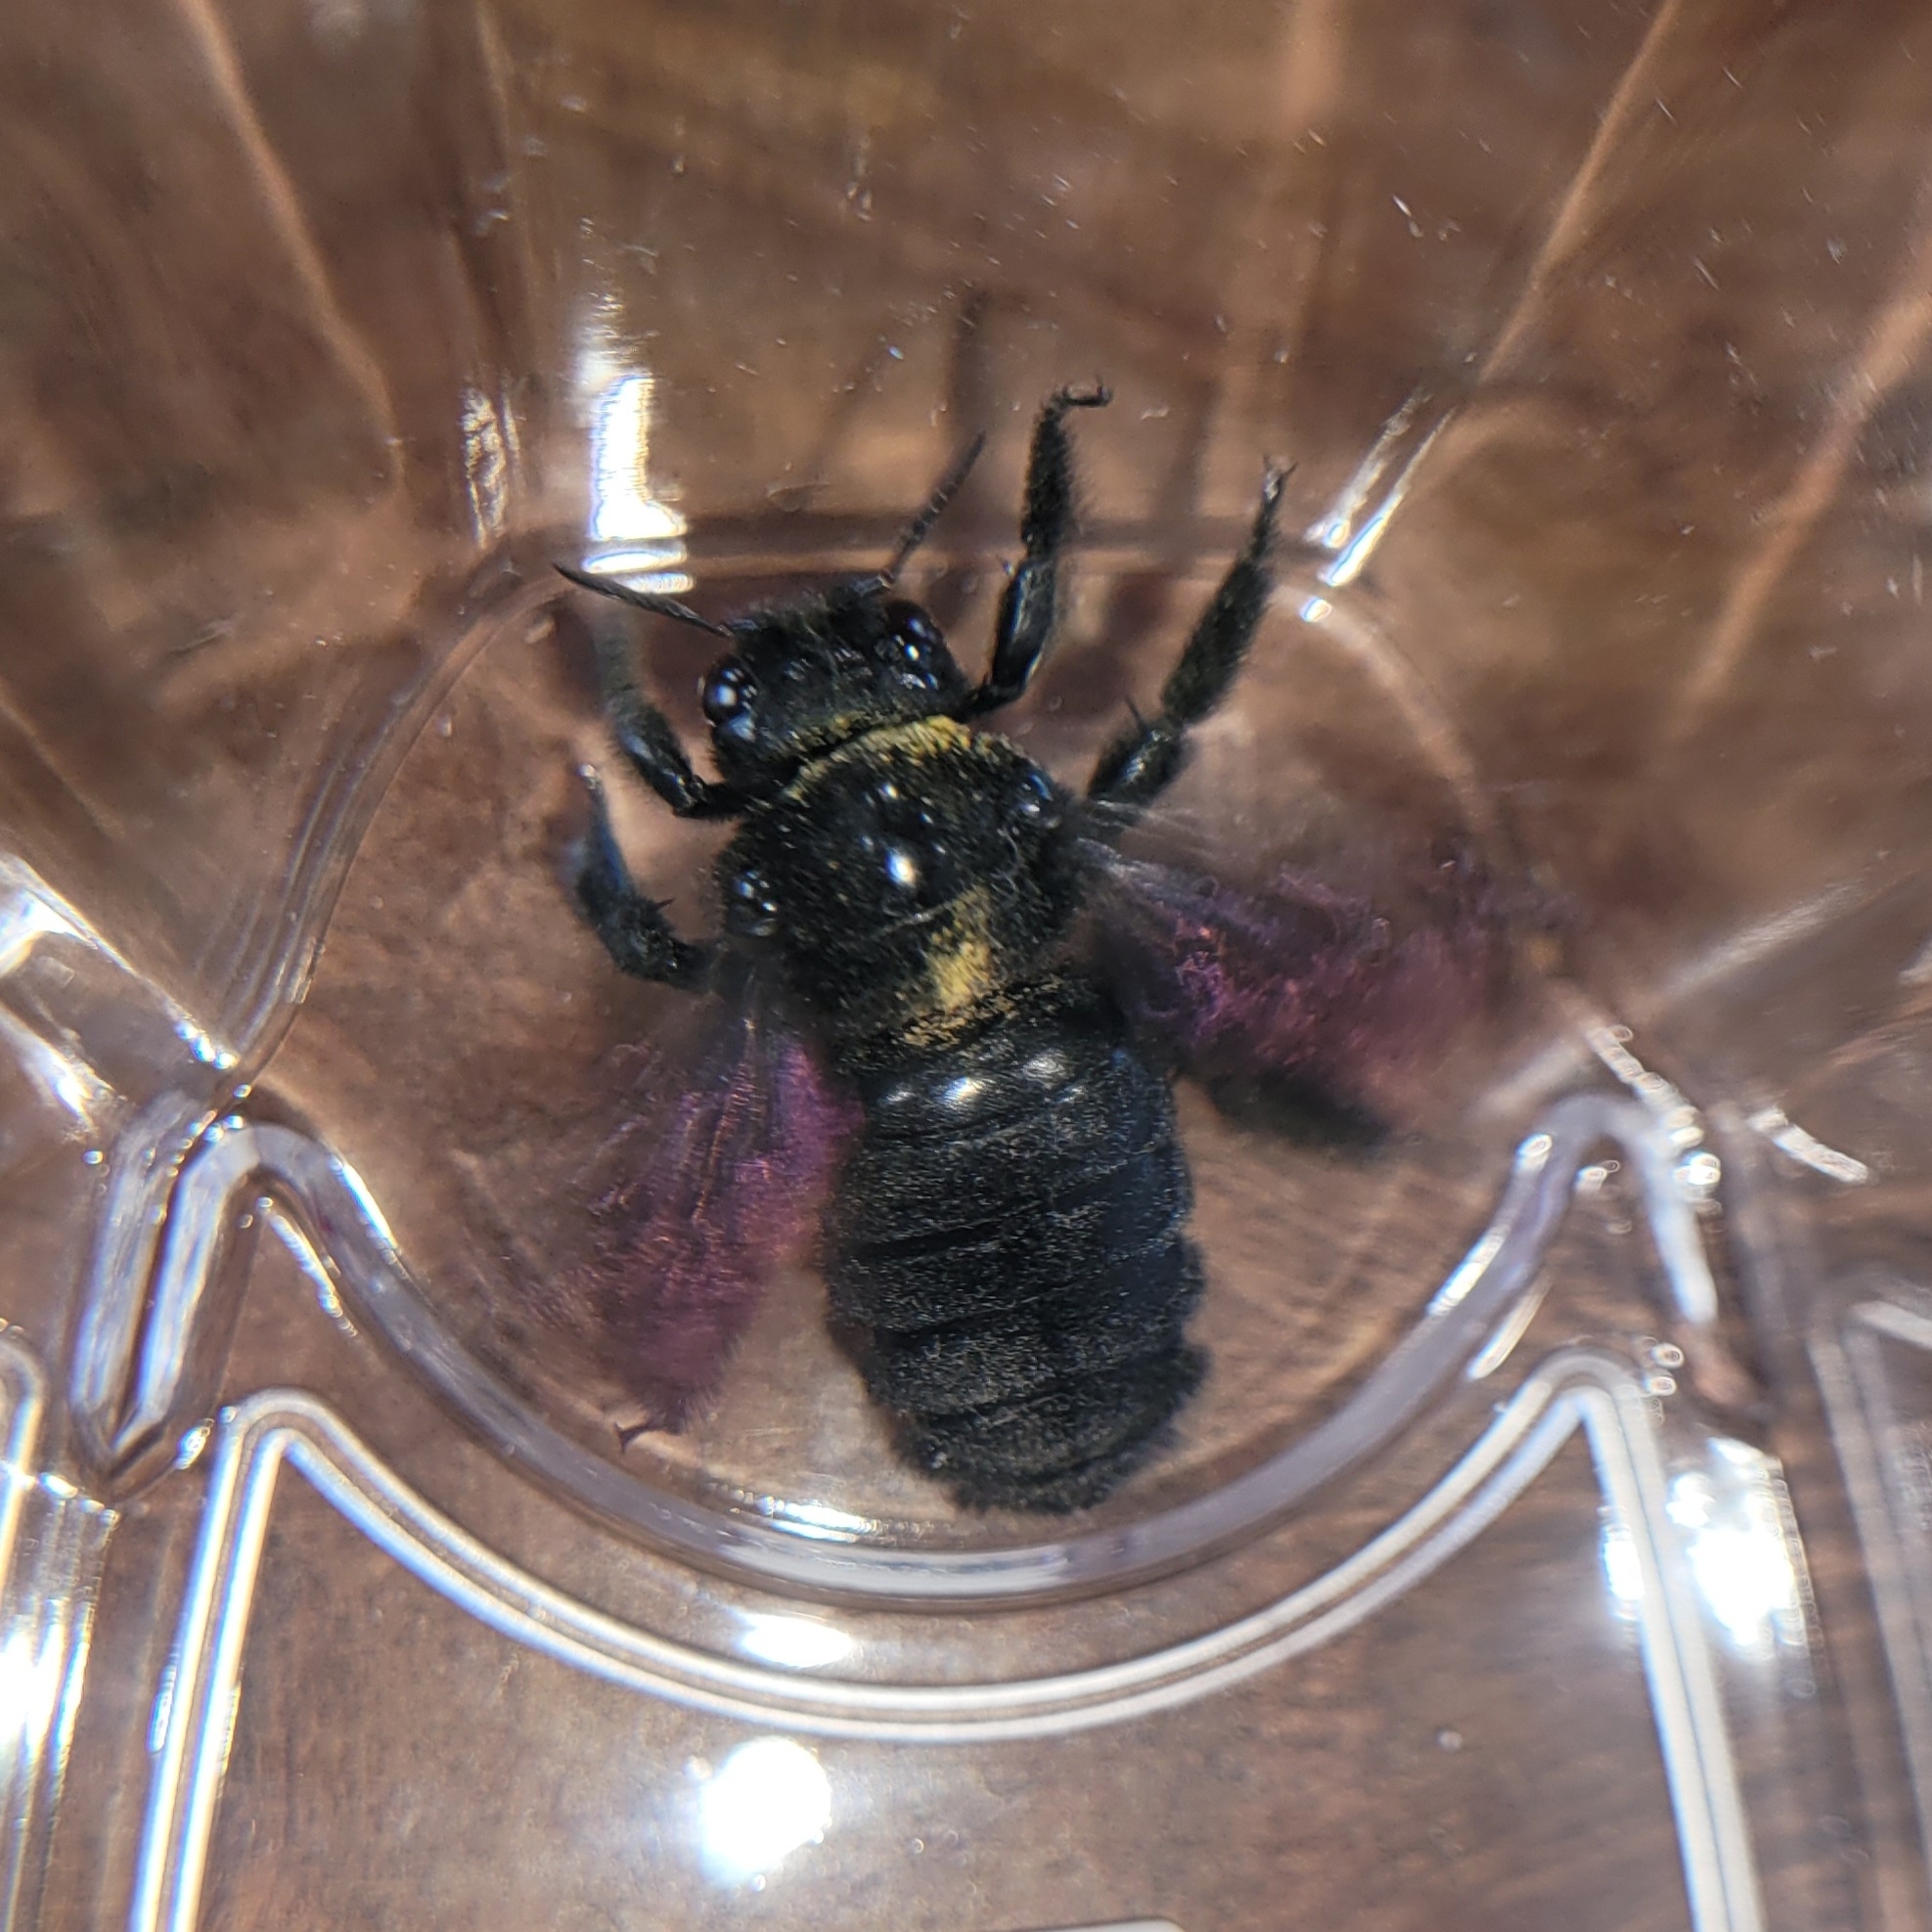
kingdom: Animalia
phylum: Arthropoda
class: Insecta
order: Hymenoptera
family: Apidae
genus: Xylocopa
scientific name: Xylocopa mordax
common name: Antillean carpenter bee
